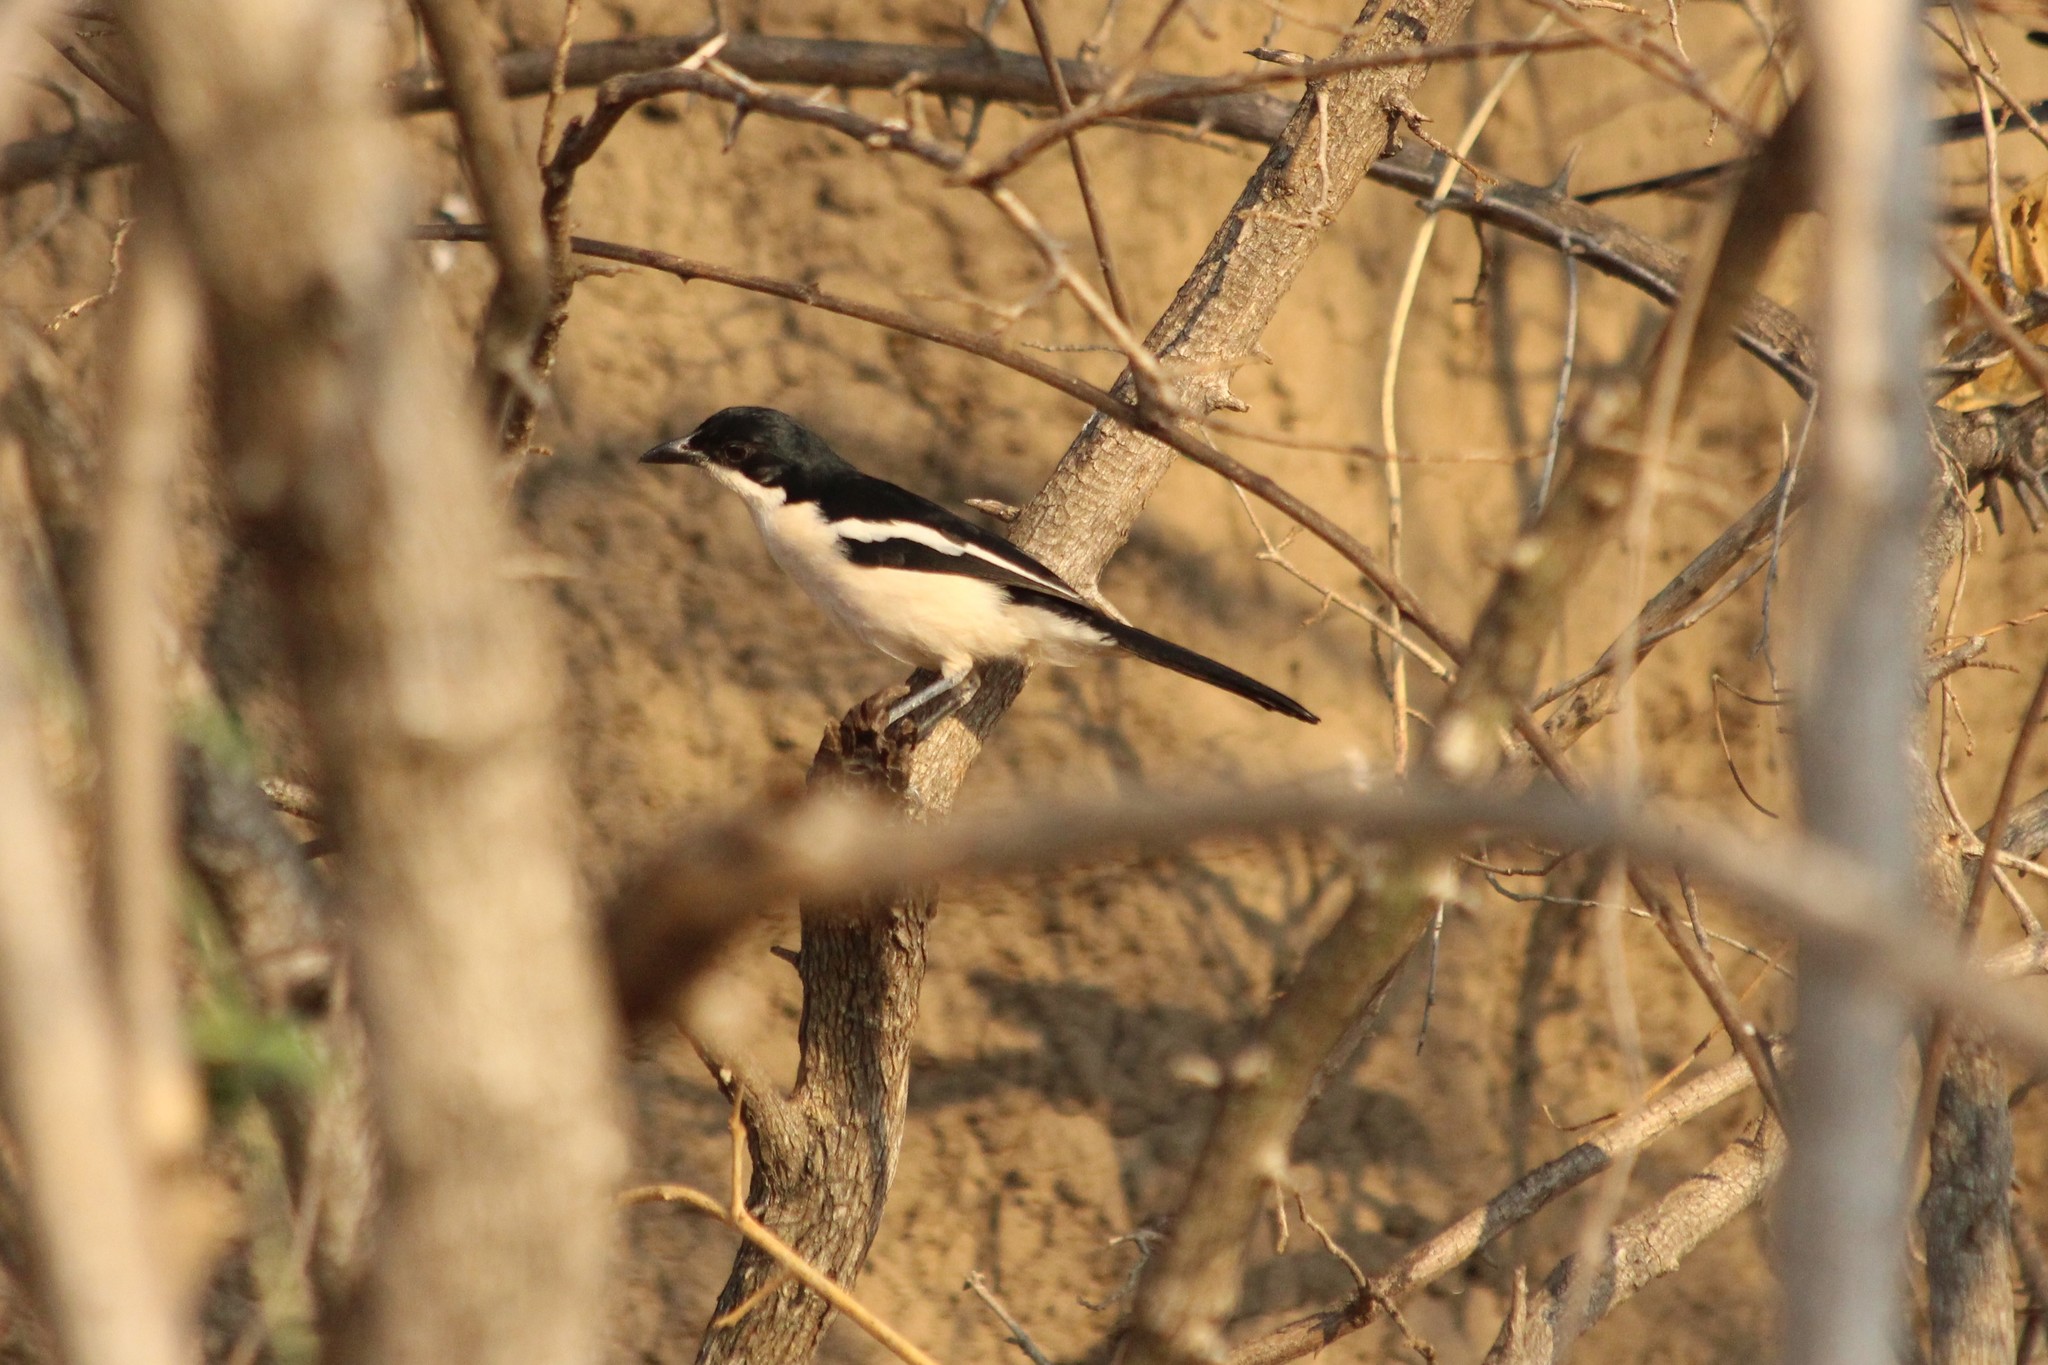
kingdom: Animalia
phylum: Chordata
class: Aves
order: Passeriformes
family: Malaconotidae
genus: Laniarius
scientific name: Laniarius major
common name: Tropical boubou
